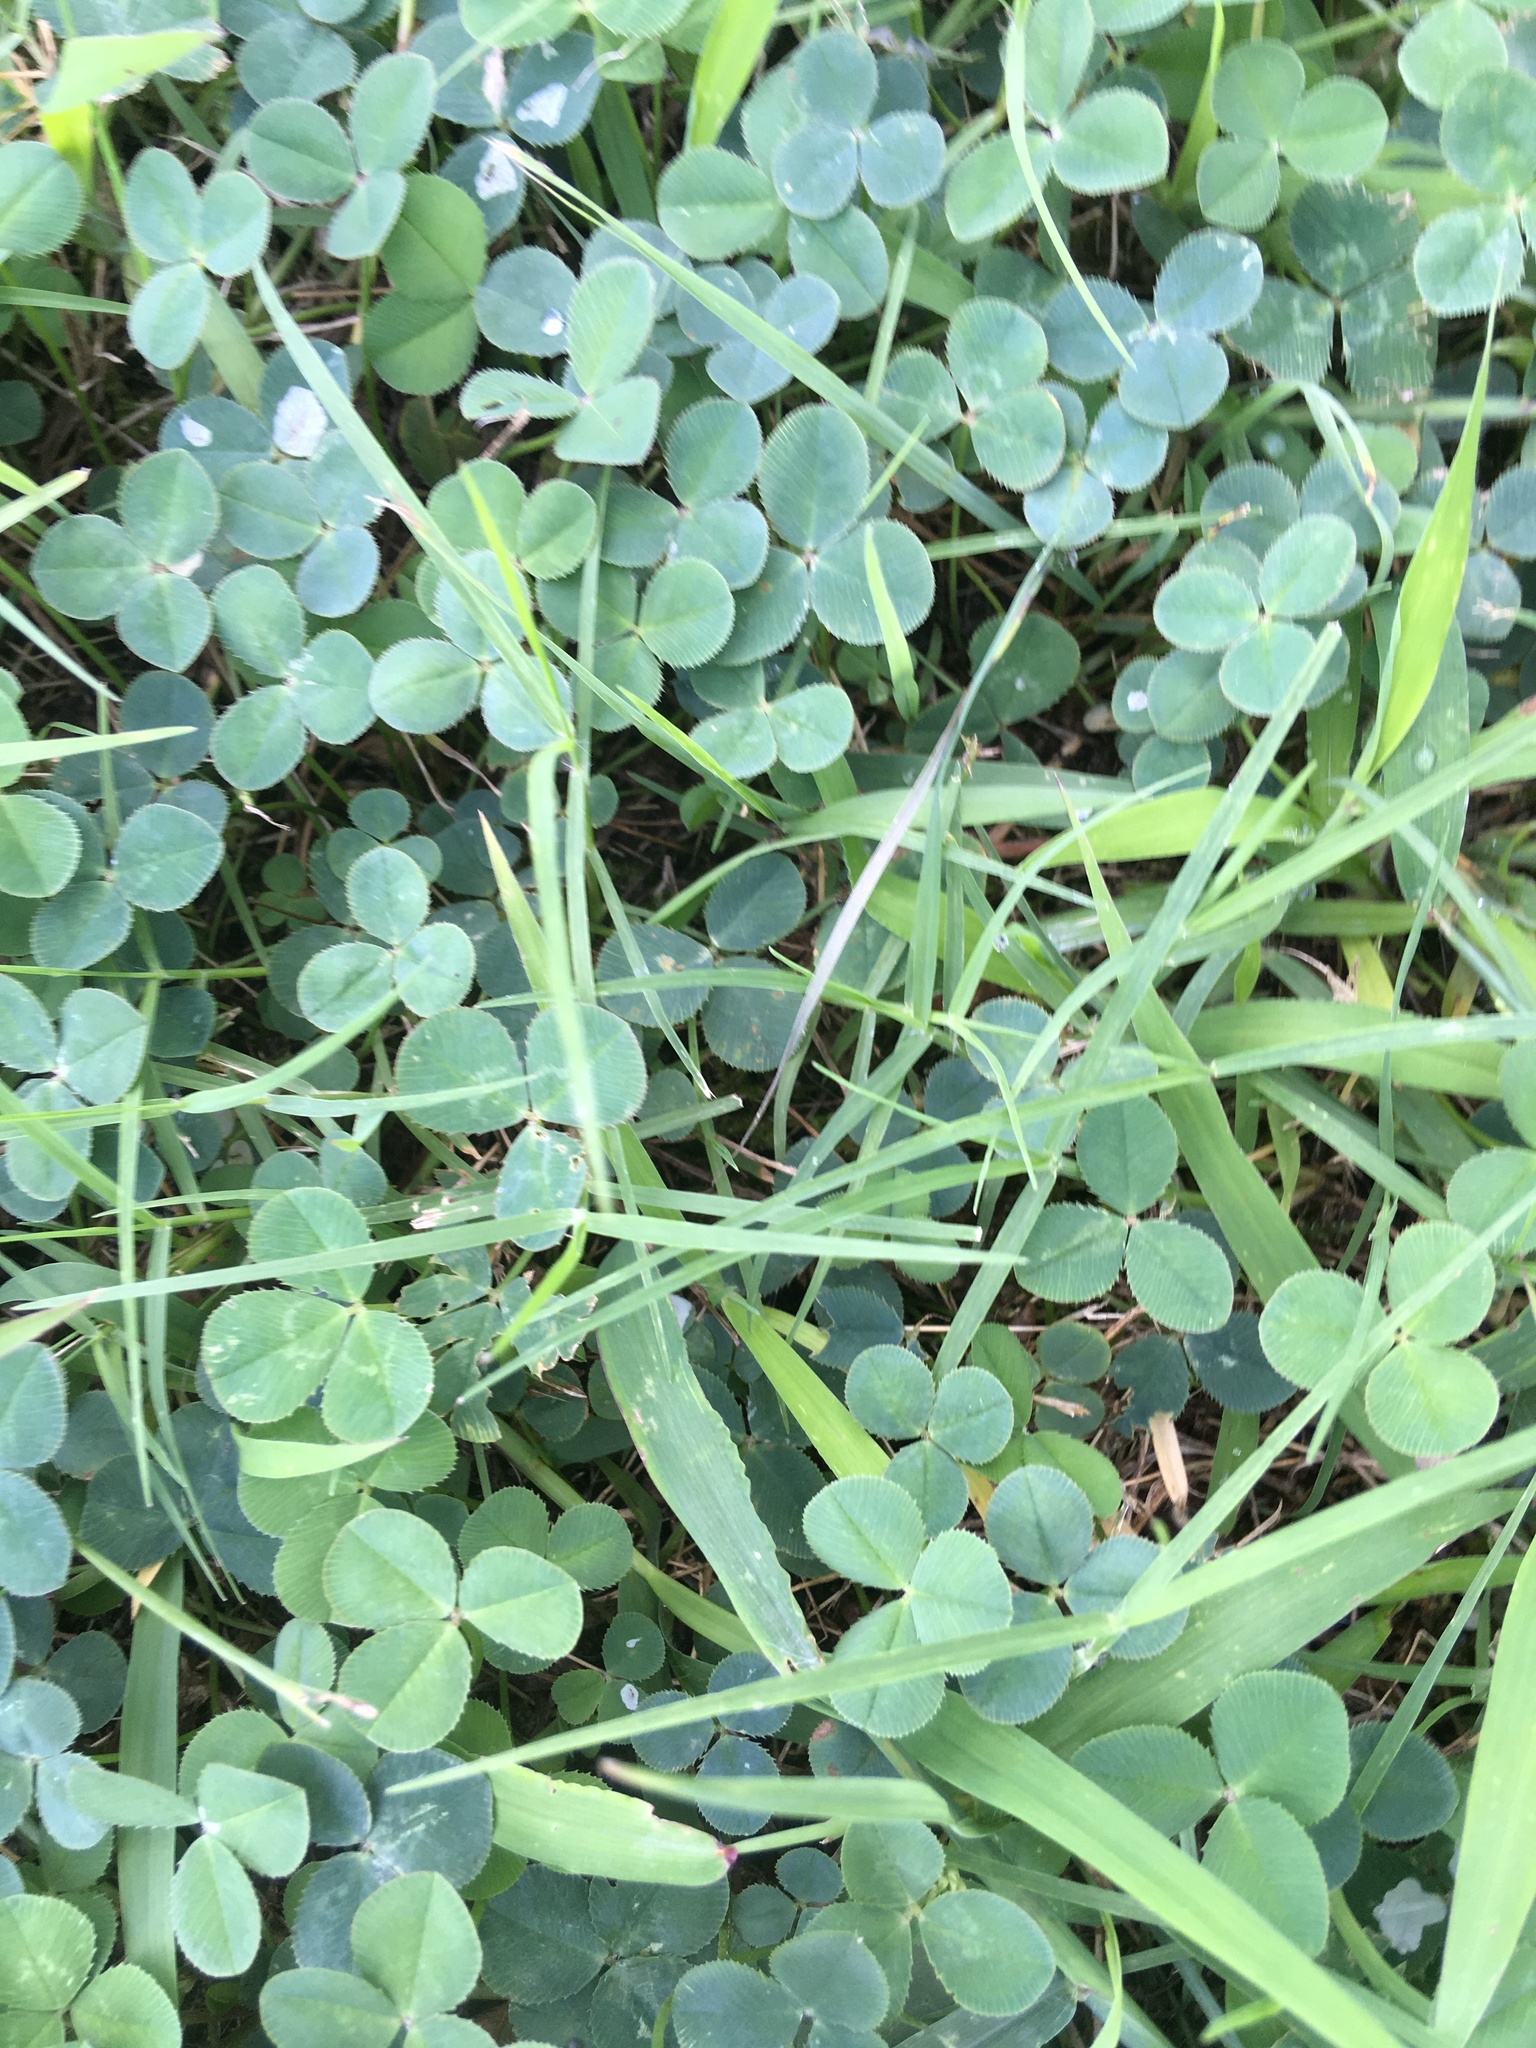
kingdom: Plantae
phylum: Tracheophyta
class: Magnoliopsida
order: Fabales
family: Fabaceae
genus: Trifolium
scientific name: Trifolium repens
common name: White clover
